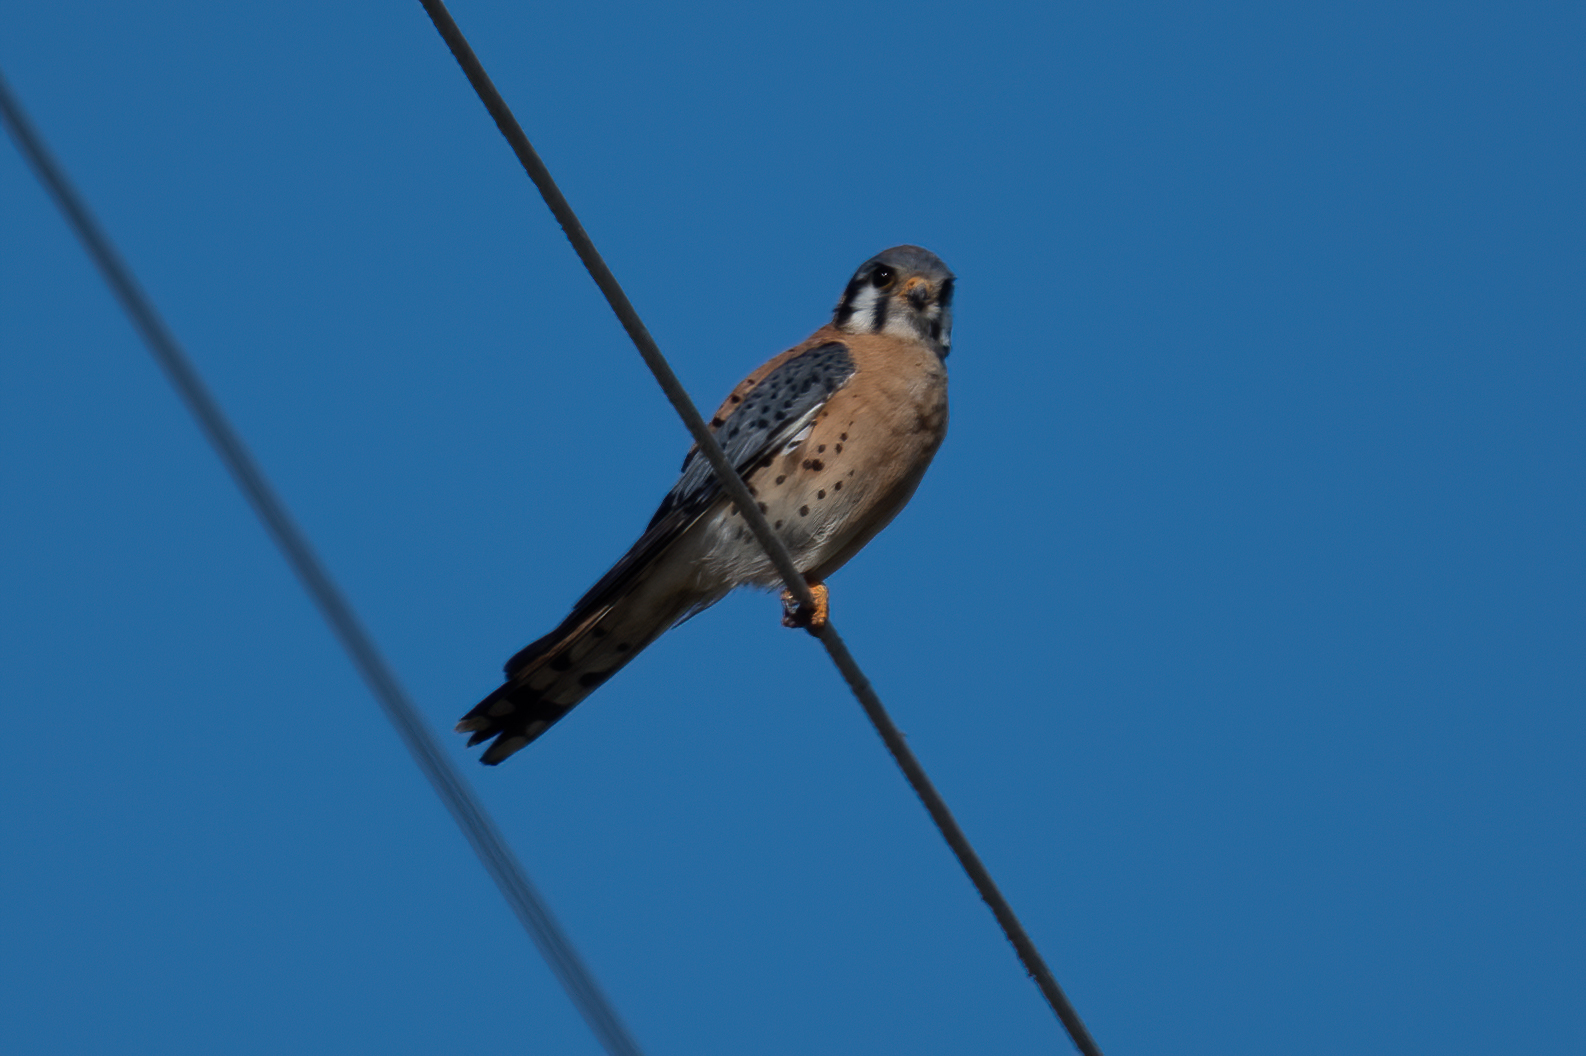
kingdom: Animalia
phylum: Chordata
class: Aves
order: Falconiformes
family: Falconidae
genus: Falco
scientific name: Falco sparverius
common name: American kestrel
